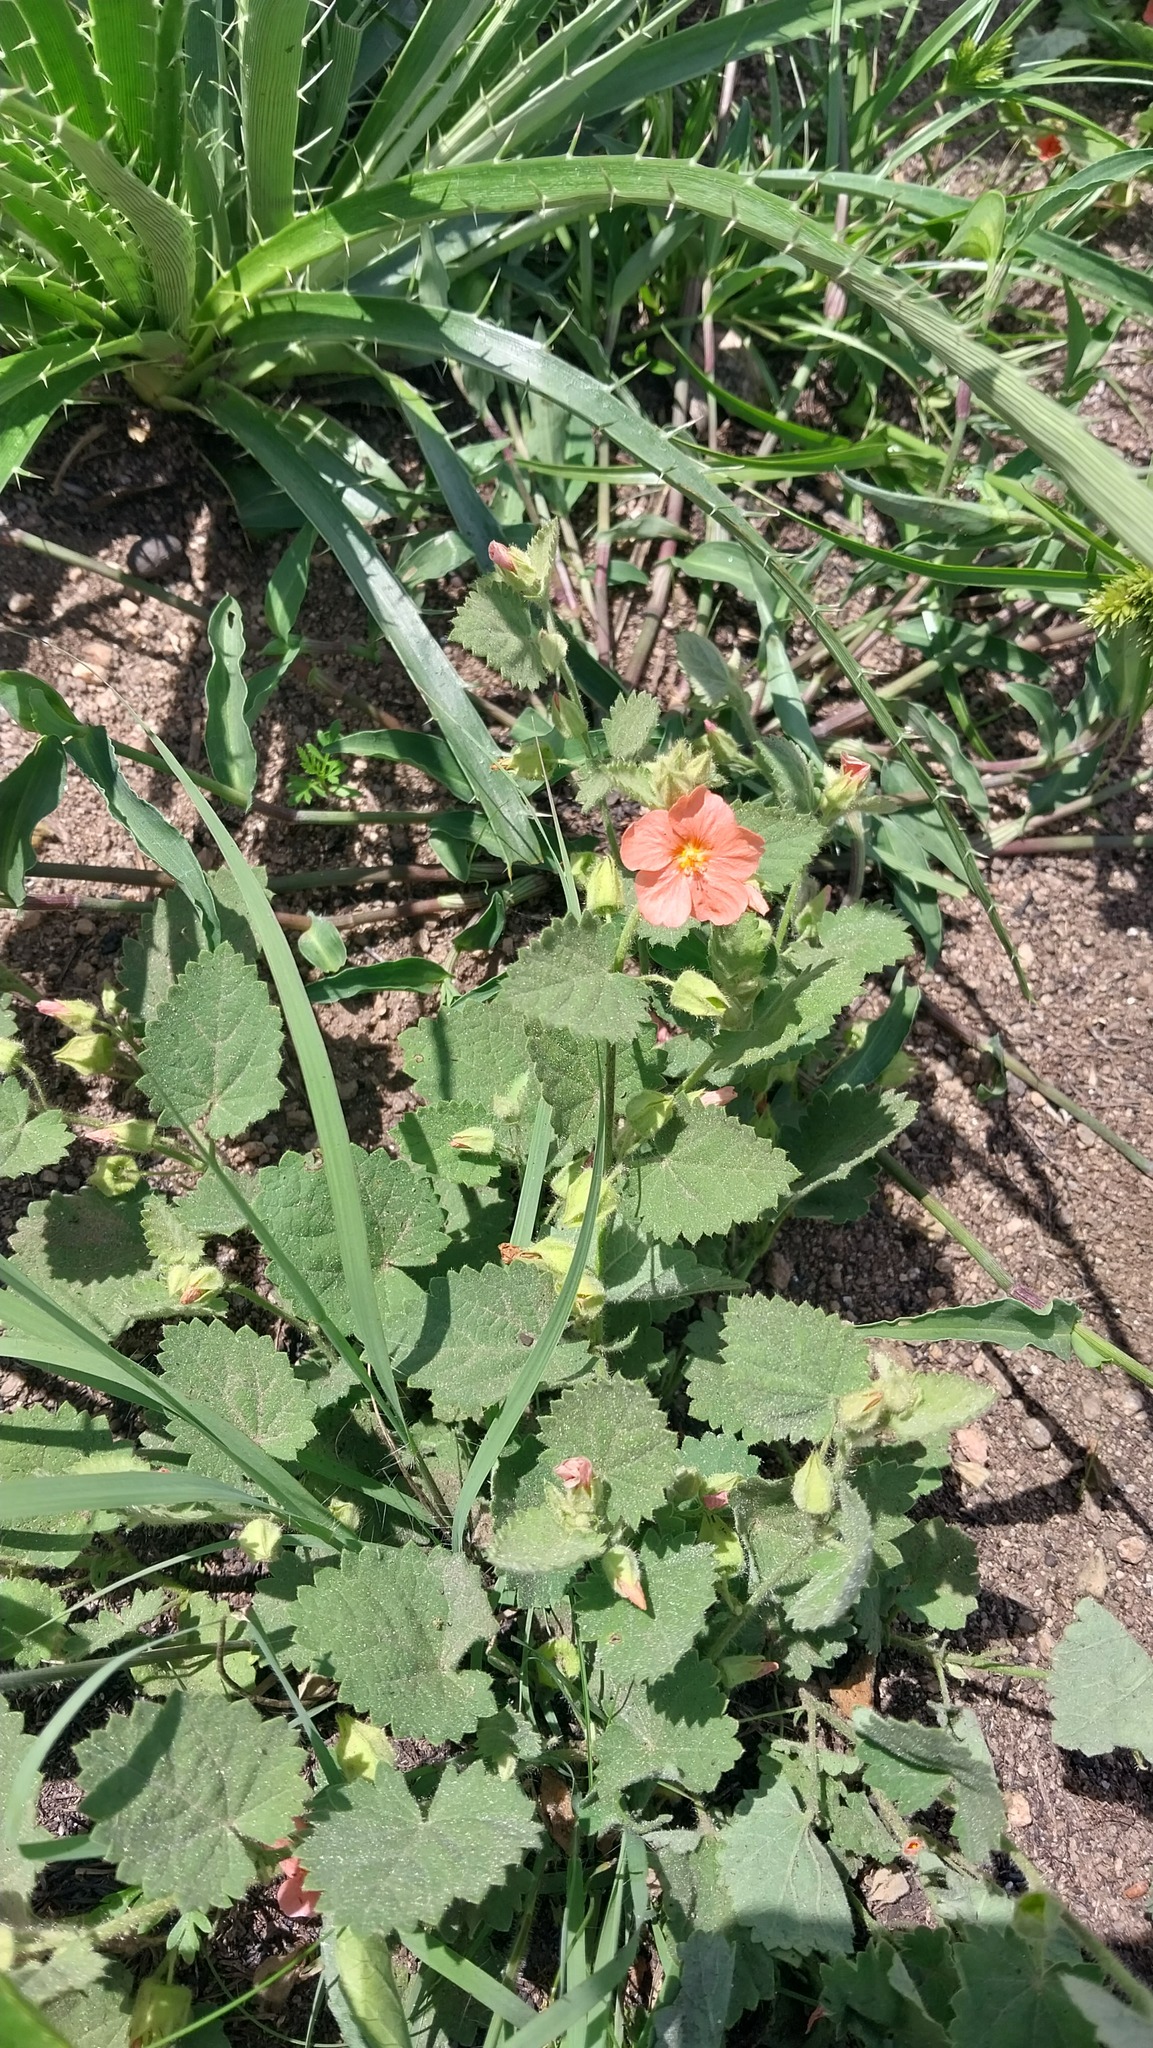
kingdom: Plantae
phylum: Tracheophyta
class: Magnoliopsida
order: Malvales
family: Malvaceae
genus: Krapovickasia
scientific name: Krapovickasia flavescens
